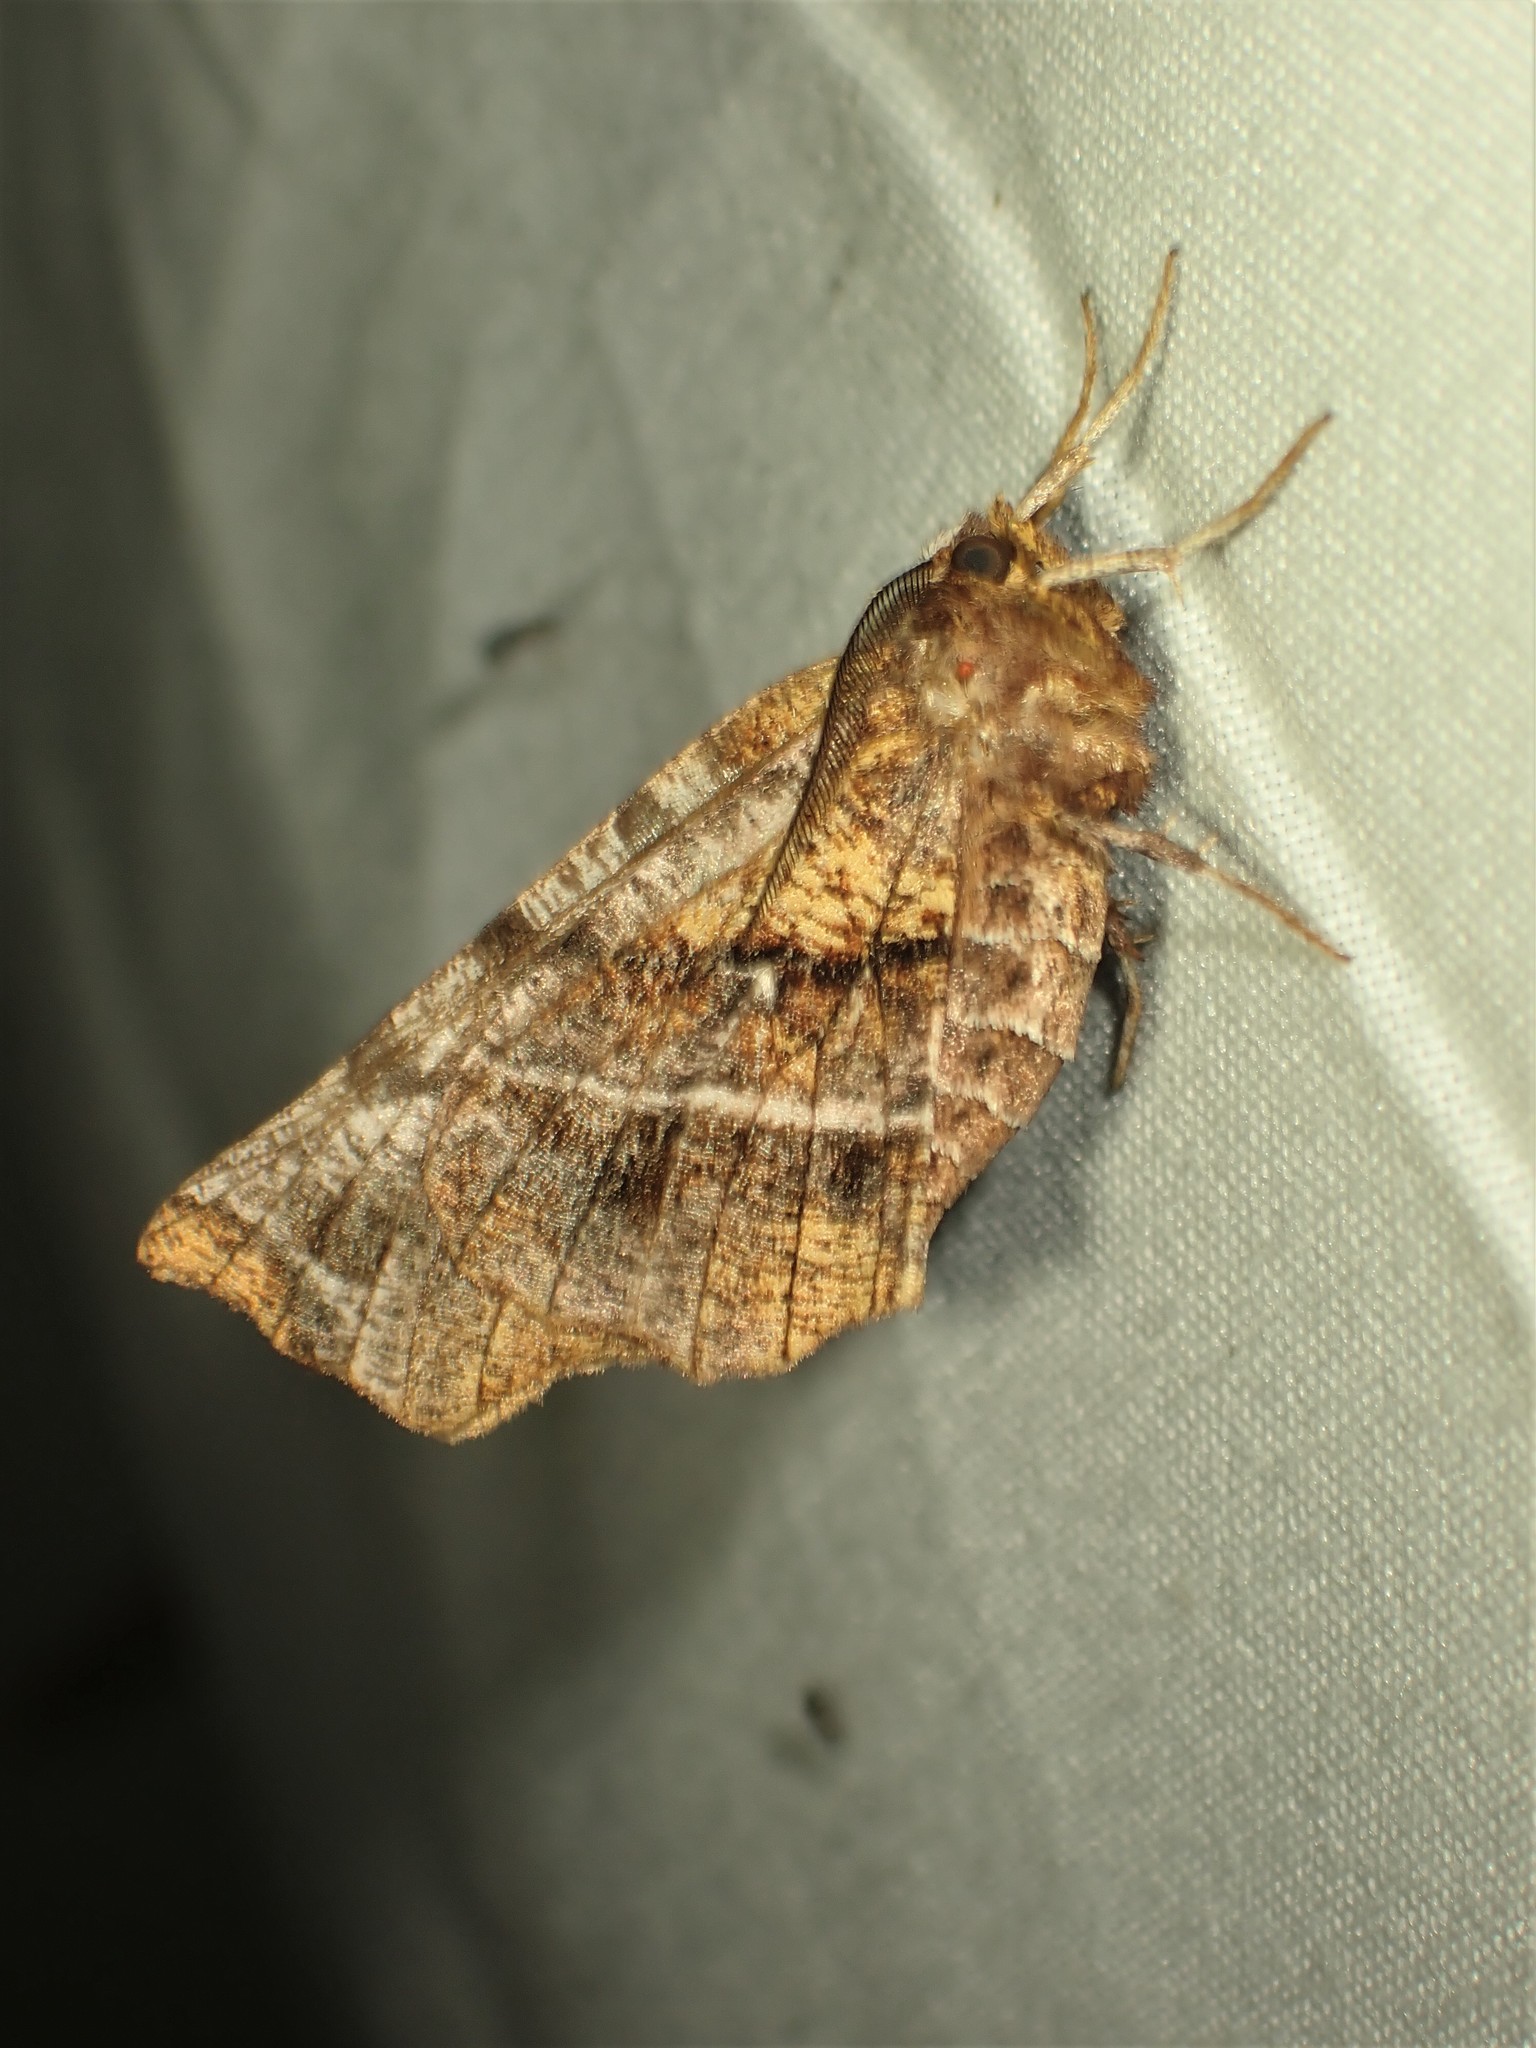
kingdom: Animalia
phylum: Arthropoda
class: Insecta
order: Lepidoptera
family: Geometridae
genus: Selenia
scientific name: Selenia alciphearia
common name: Brown-tipped thorn
